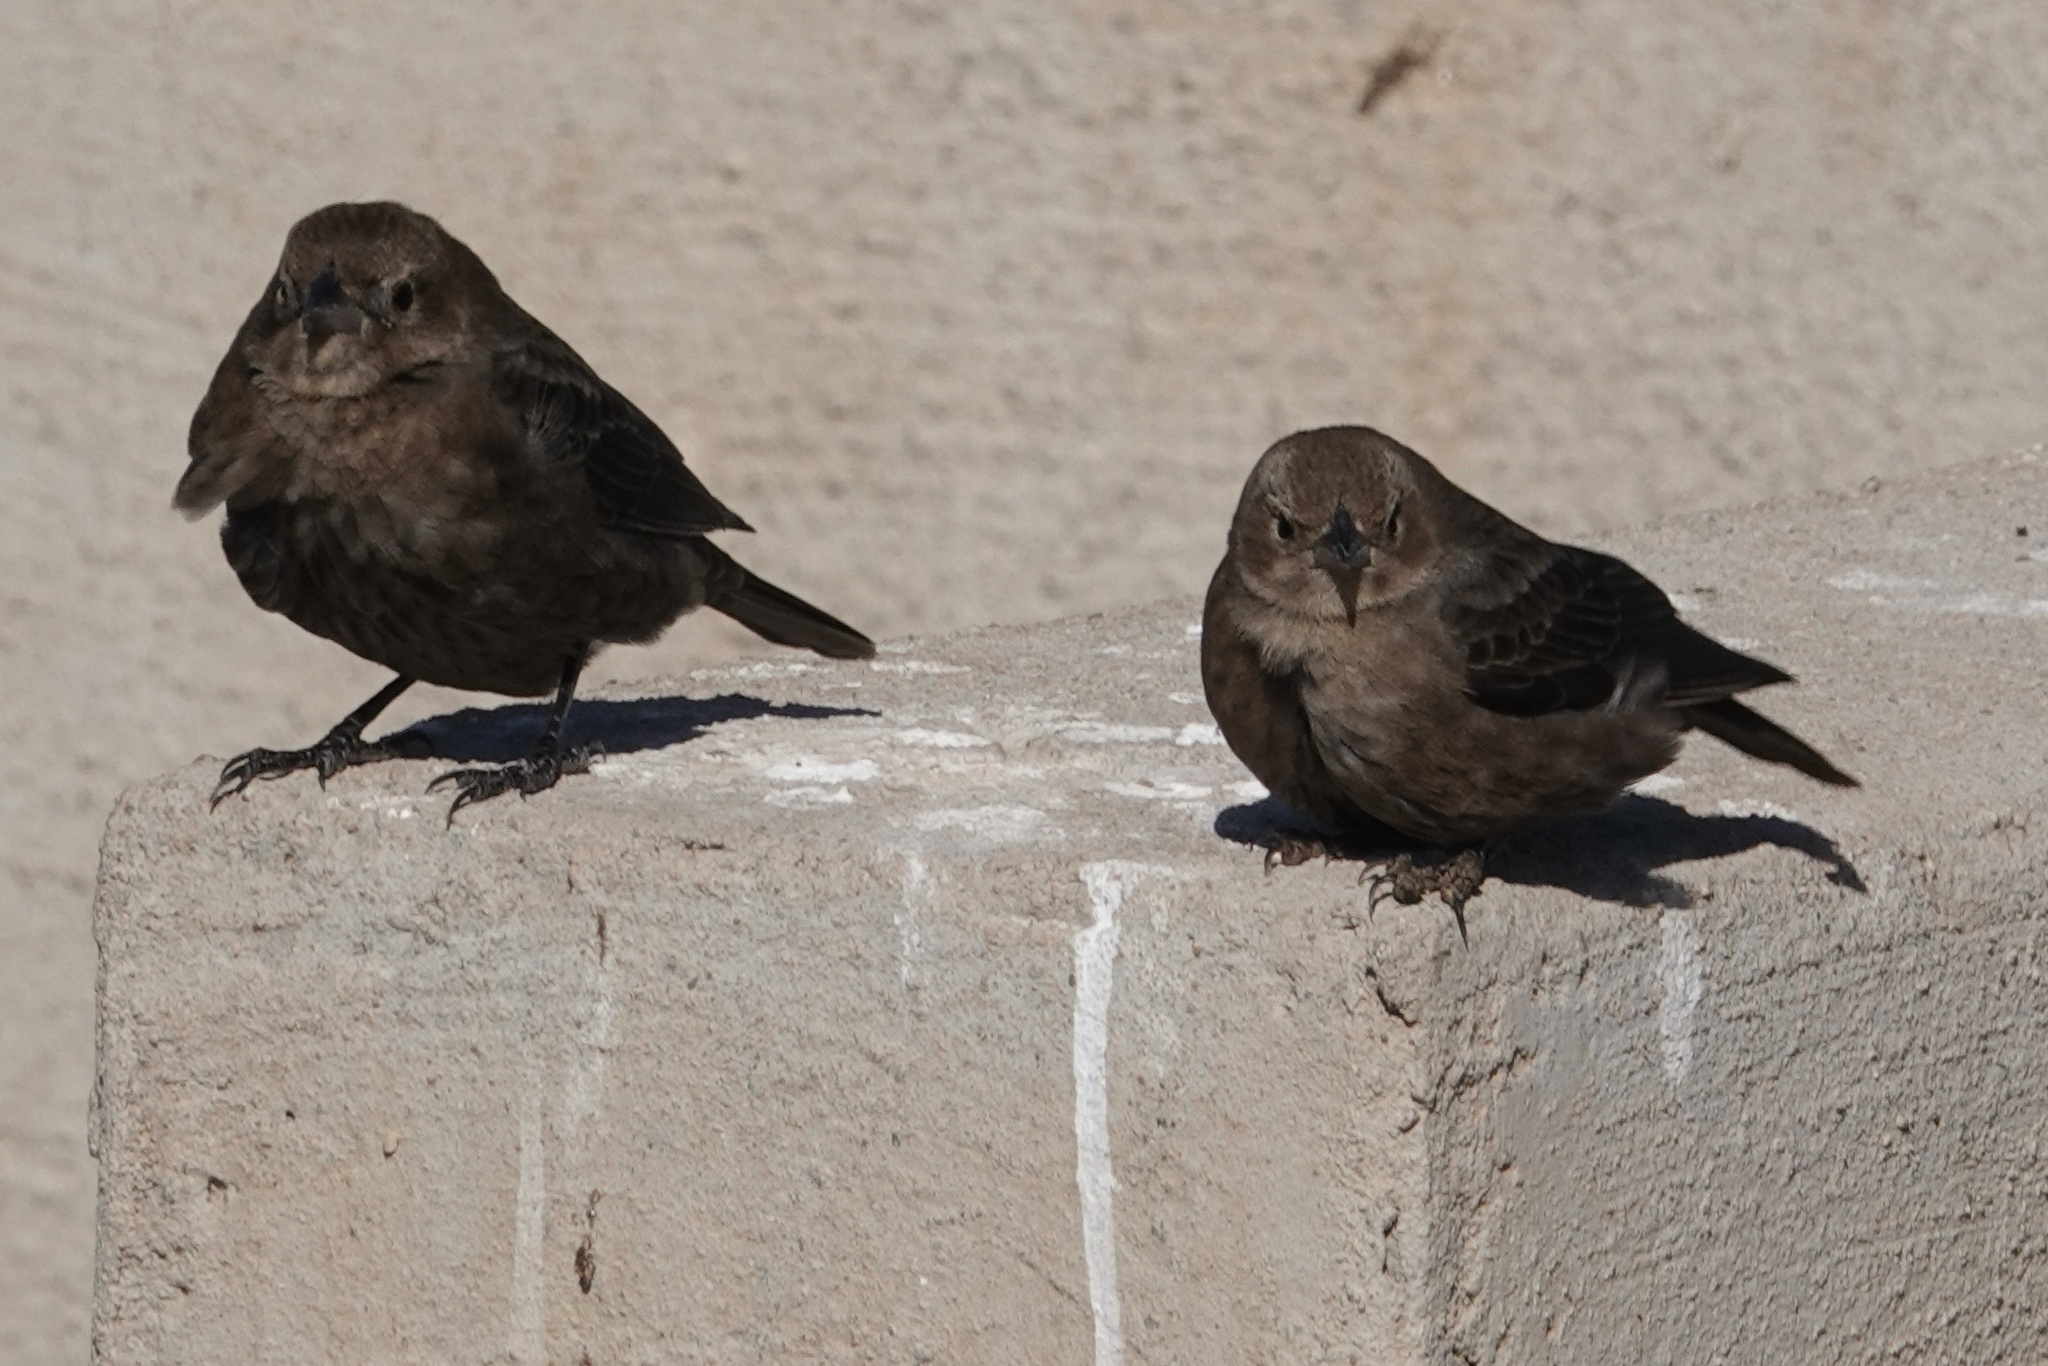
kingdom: Animalia
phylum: Chordata
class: Aves
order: Passeriformes
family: Icteridae
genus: Molothrus
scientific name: Molothrus ater
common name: Brown-headed cowbird
